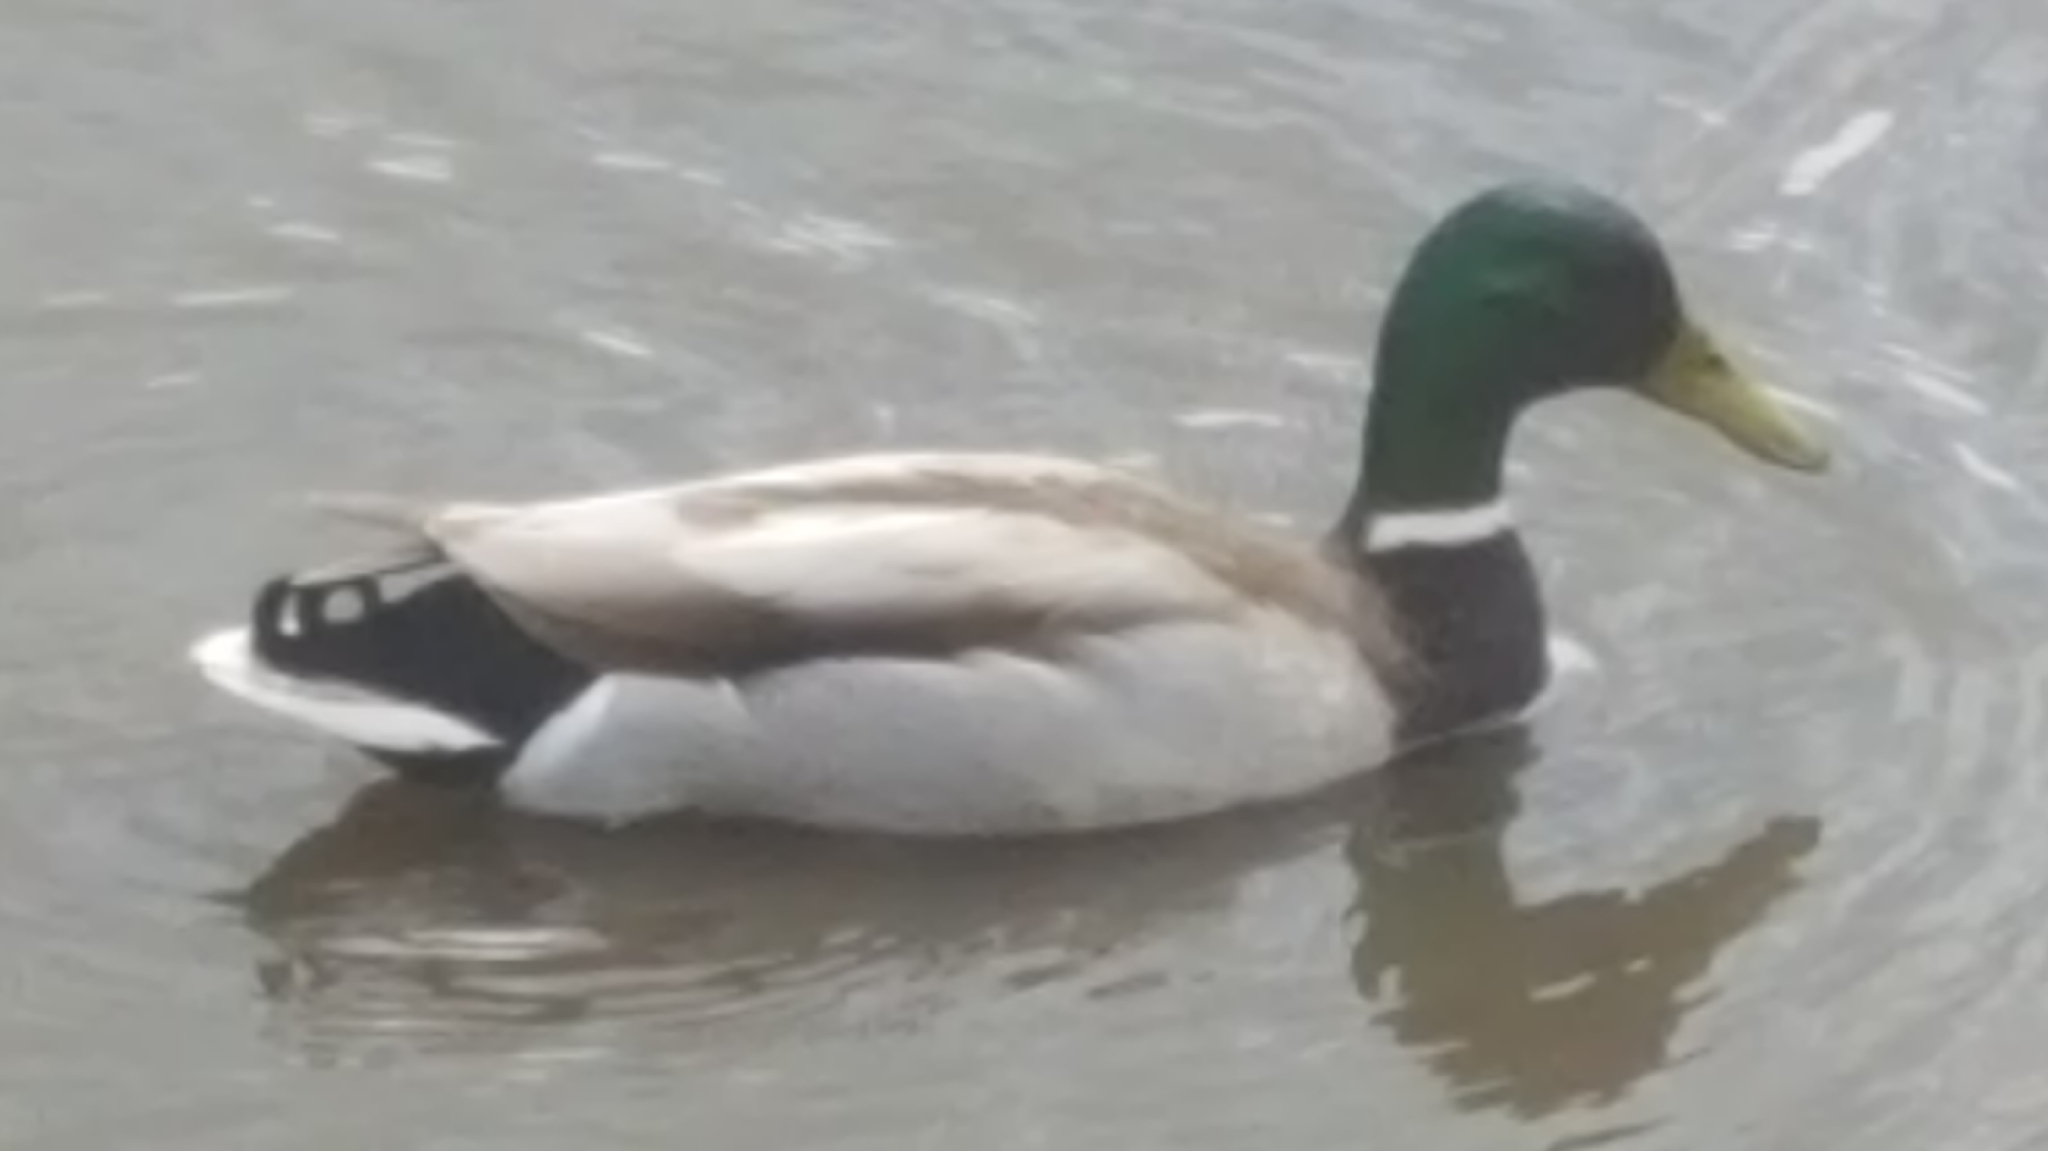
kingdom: Animalia
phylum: Chordata
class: Aves
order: Anseriformes
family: Anatidae
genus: Anas
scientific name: Anas platyrhynchos
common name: Mallard
